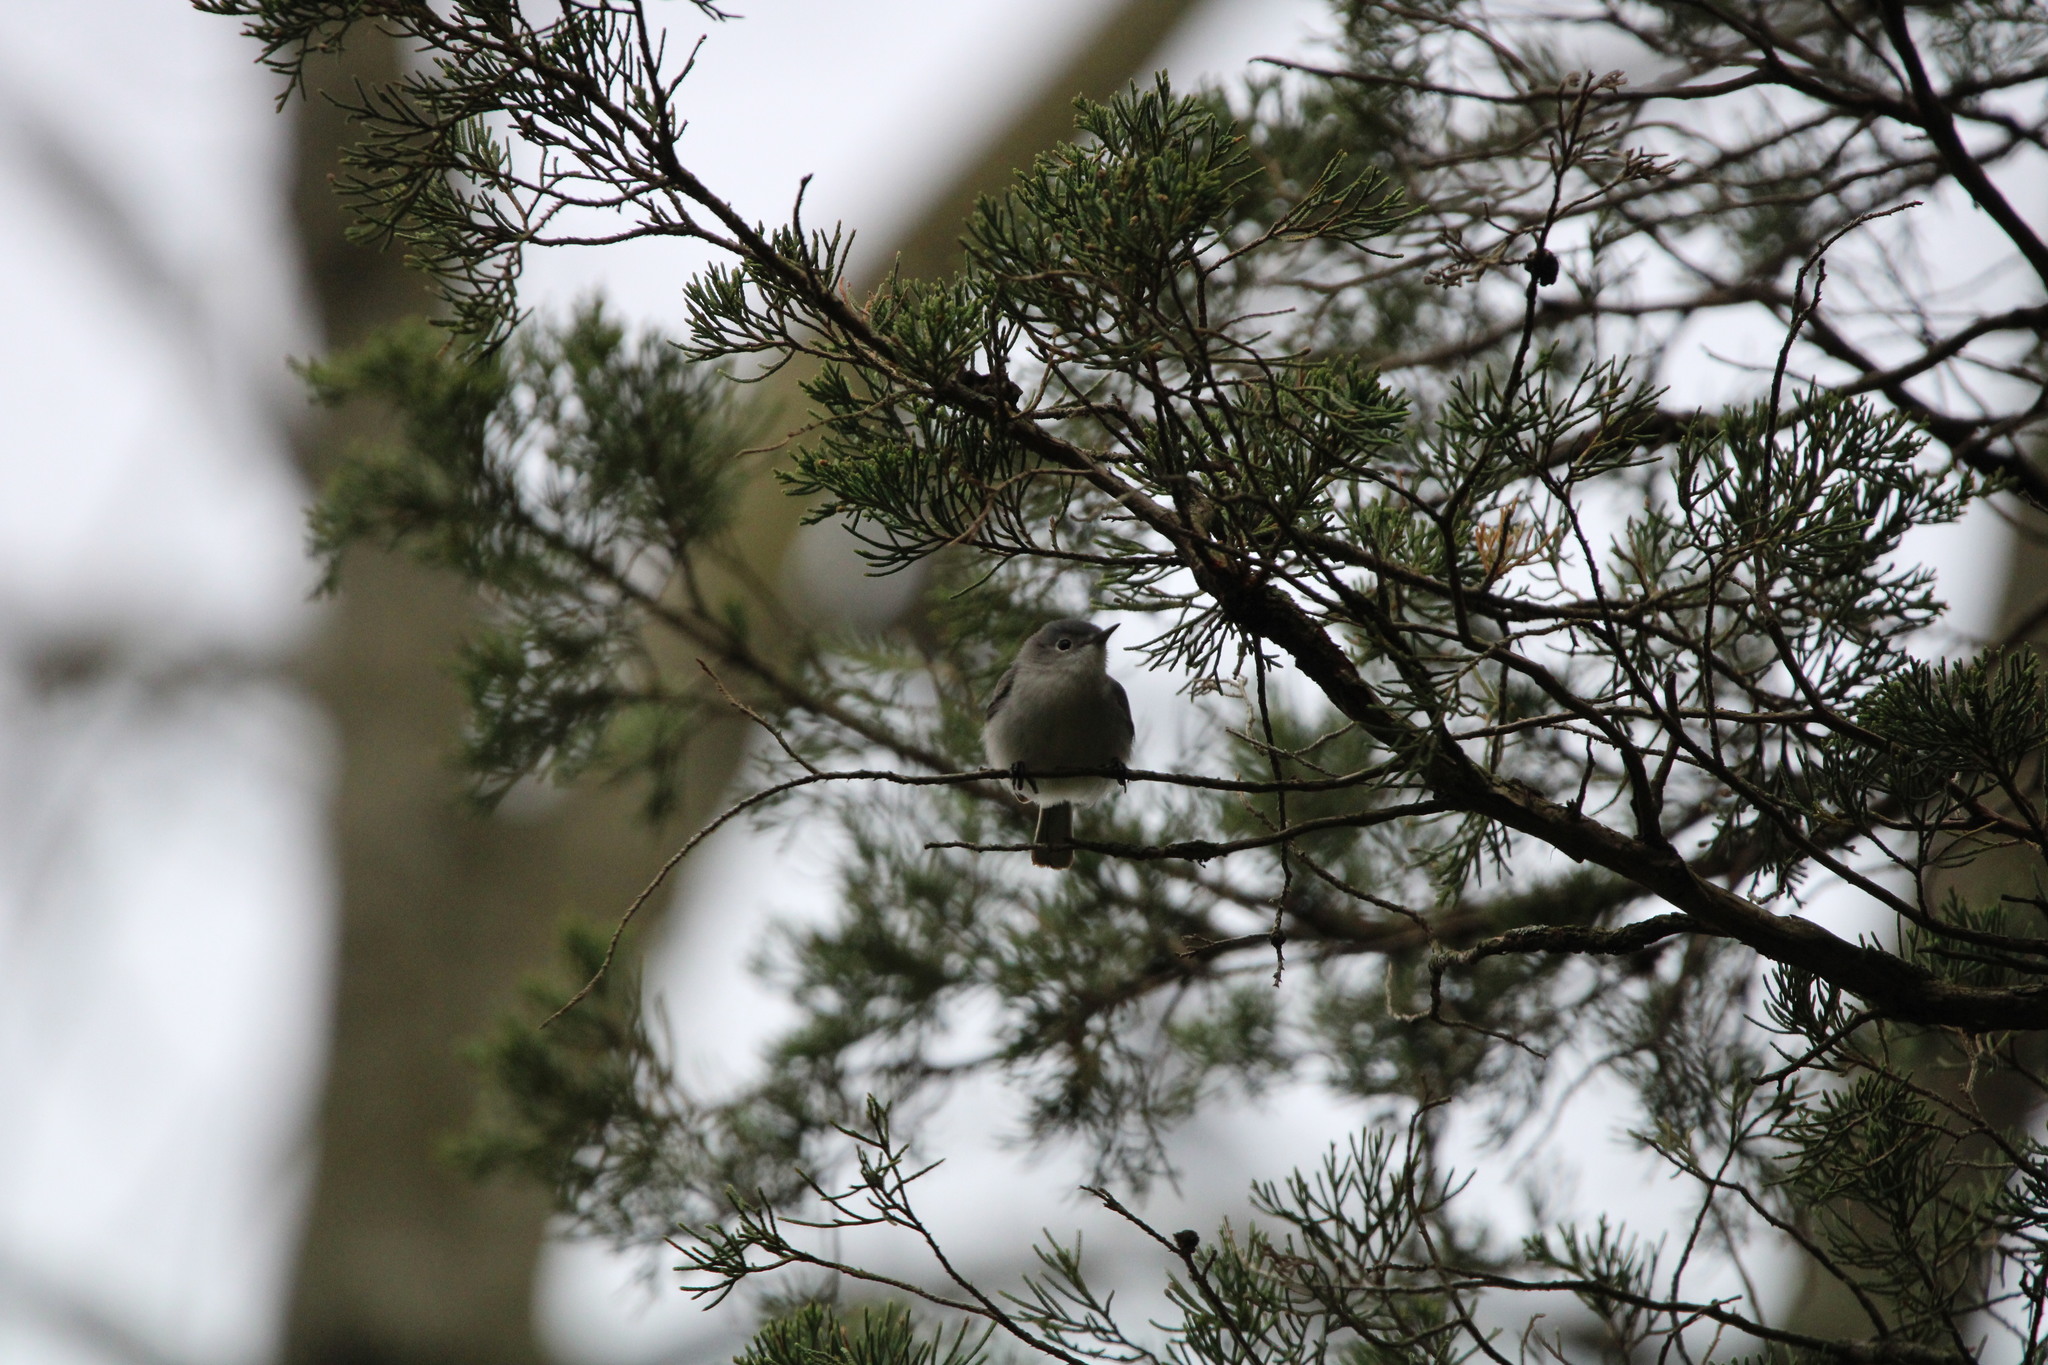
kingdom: Animalia
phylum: Chordata
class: Aves
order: Passeriformes
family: Polioptilidae
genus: Polioptila
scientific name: Polioptila caerulea
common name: Blue-gray gnatcatcher
